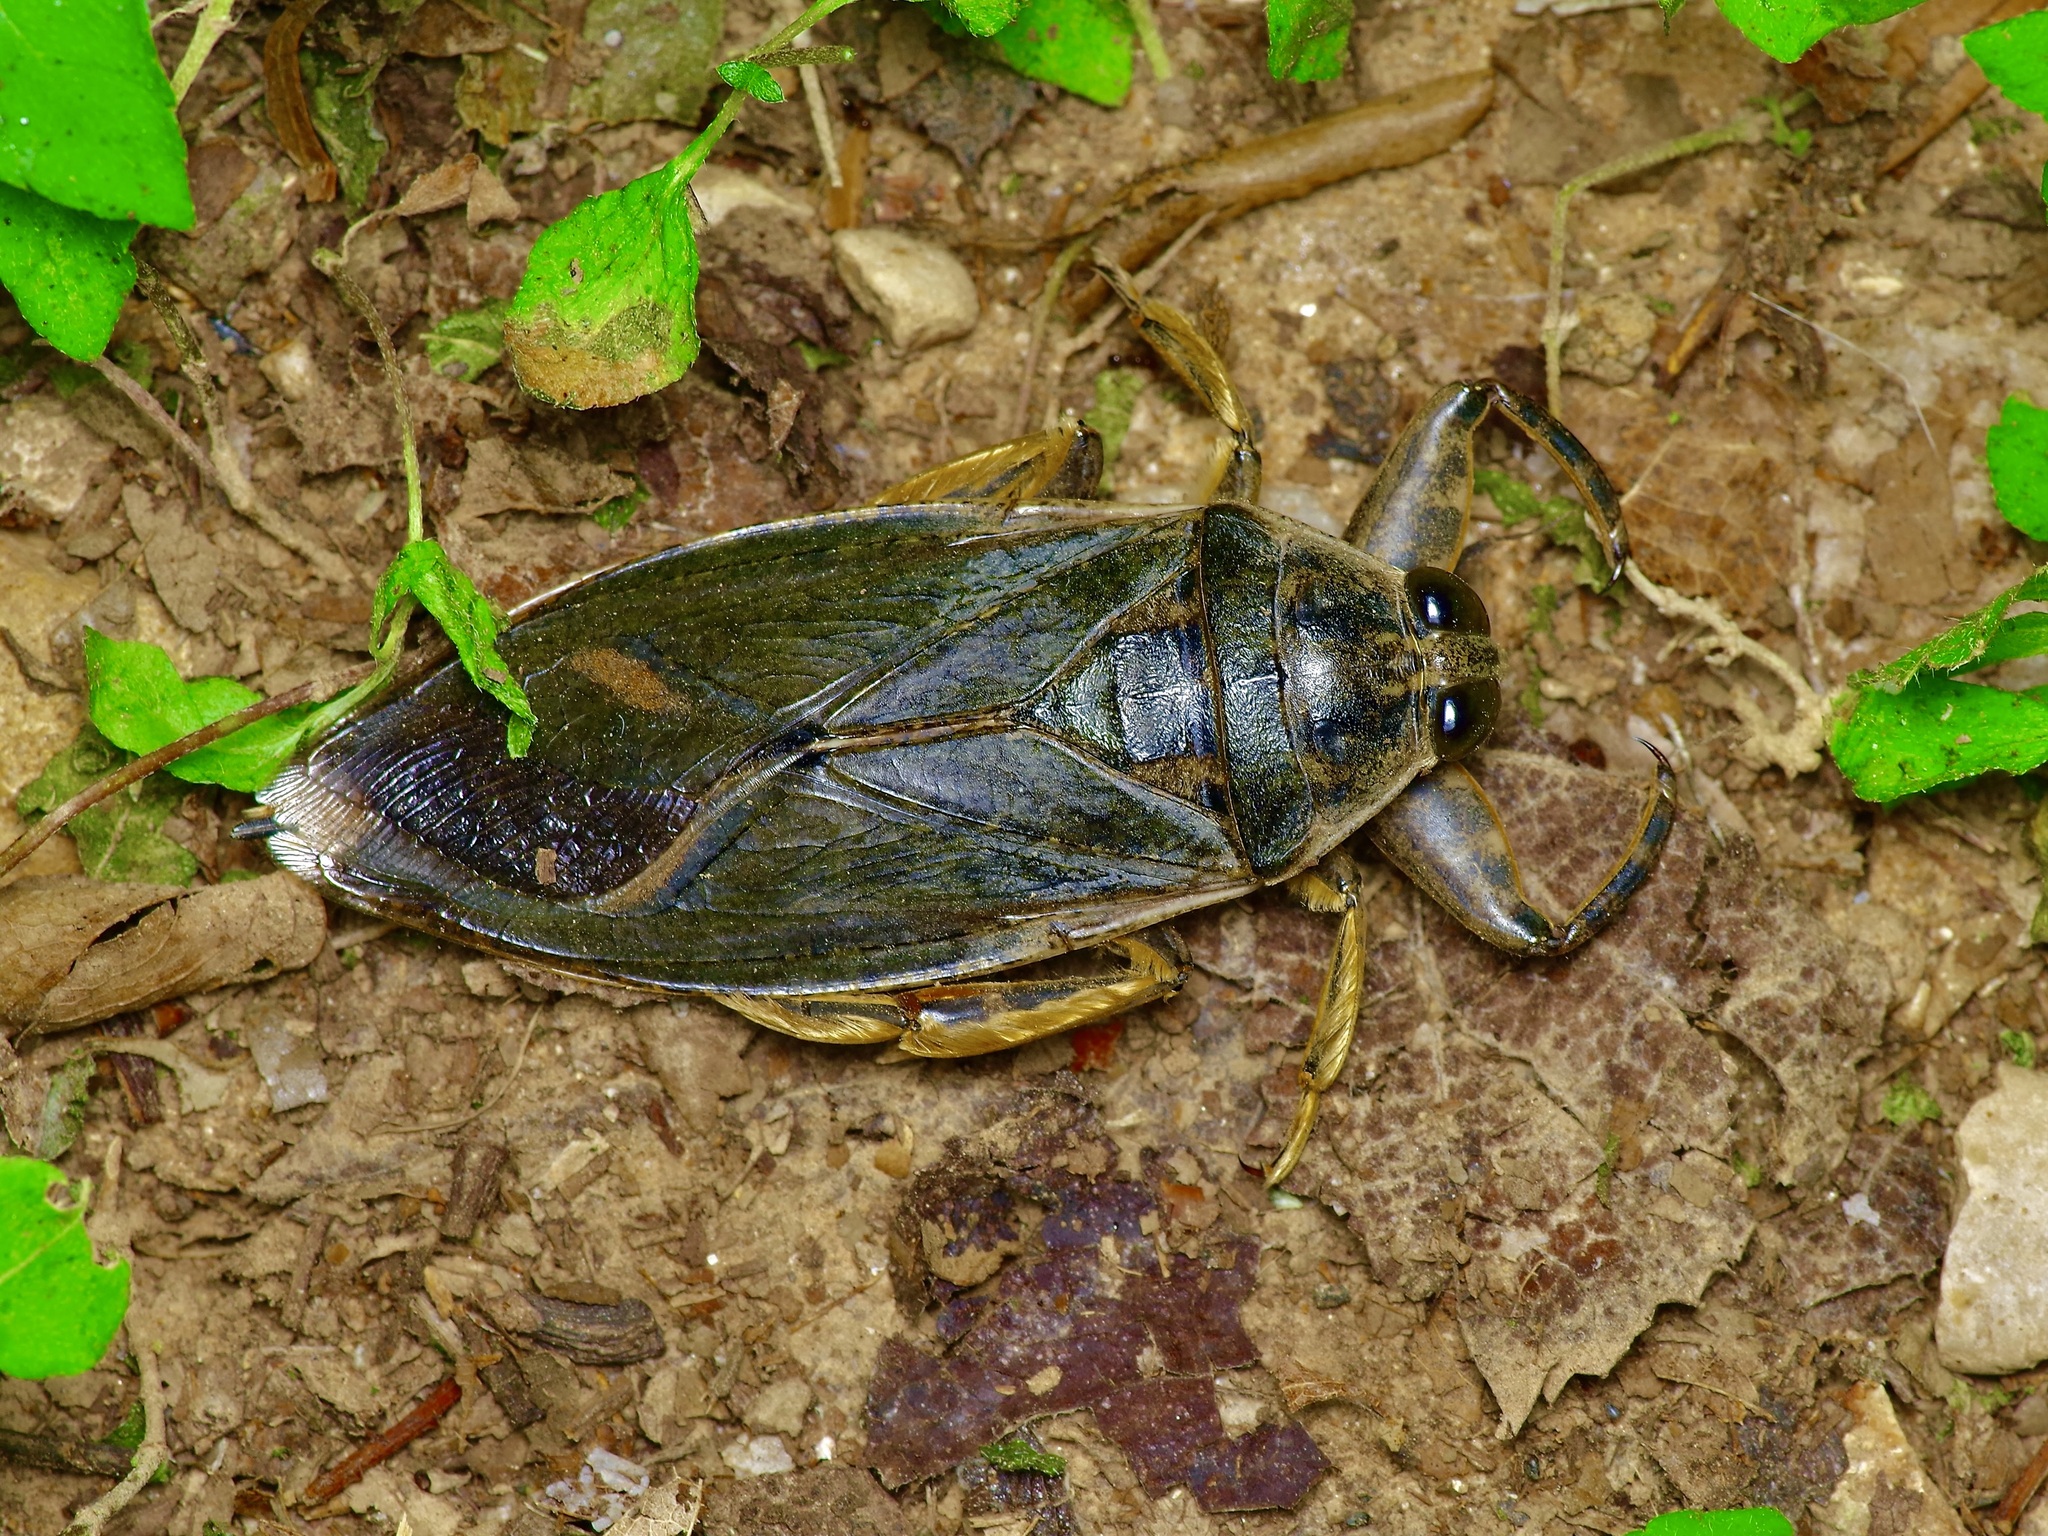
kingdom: Animalia
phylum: Arthropoda
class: Insecta
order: Hemiptera
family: Belostomatidae
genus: Lethocerus
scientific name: Lethocerus medius
